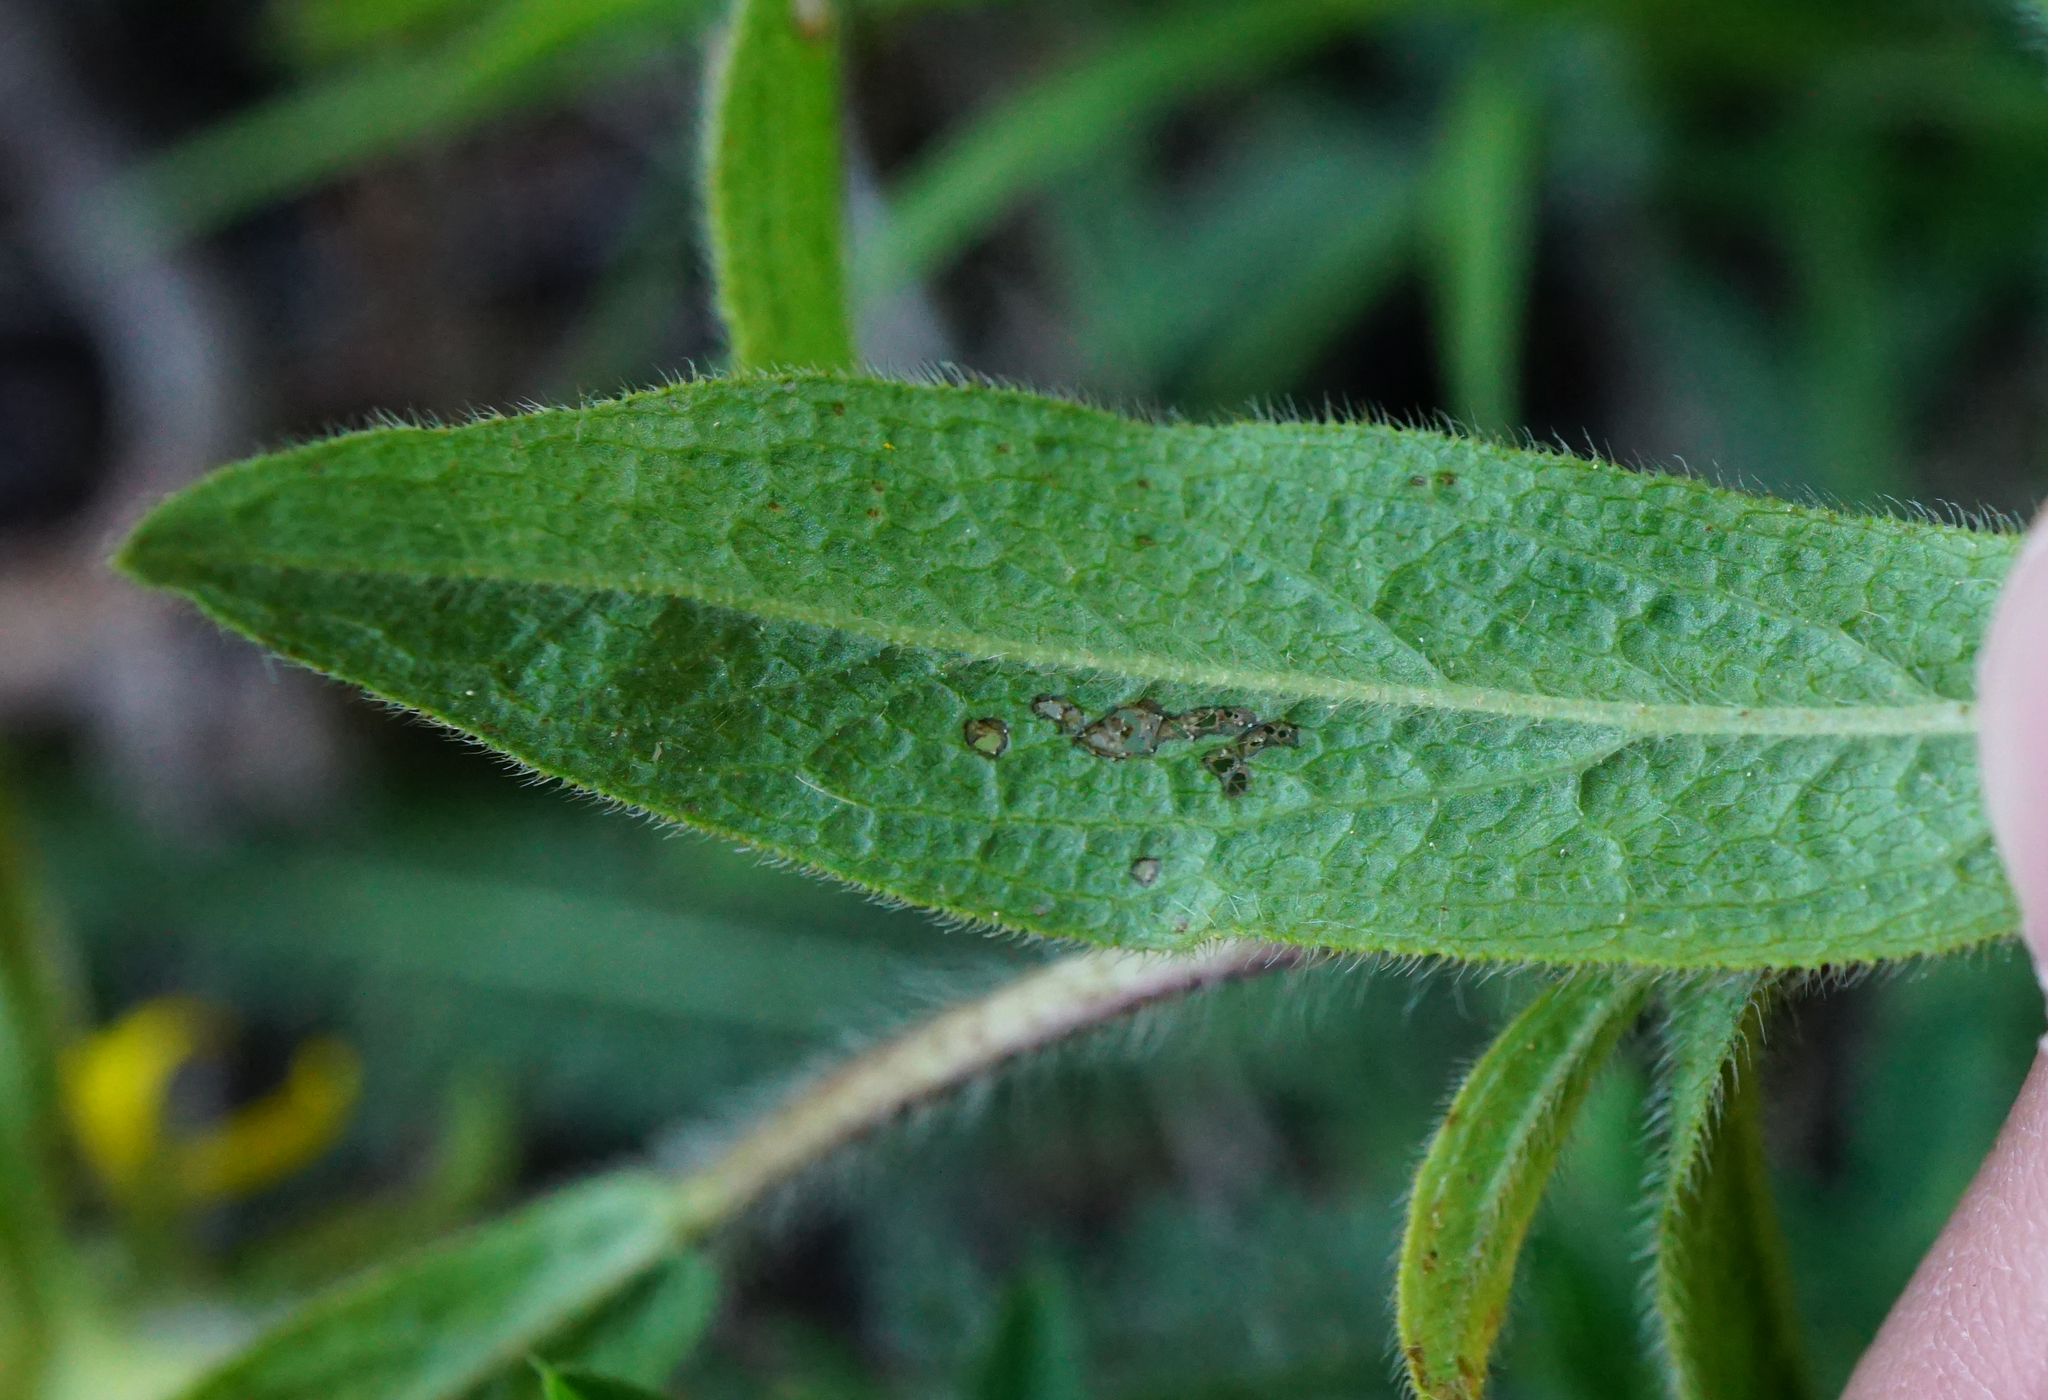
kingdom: Plantae
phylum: Tracheophyta
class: Magnoliopsida
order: Asterales
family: Asteraceae
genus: Pentanema
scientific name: Pentanema hirtum
